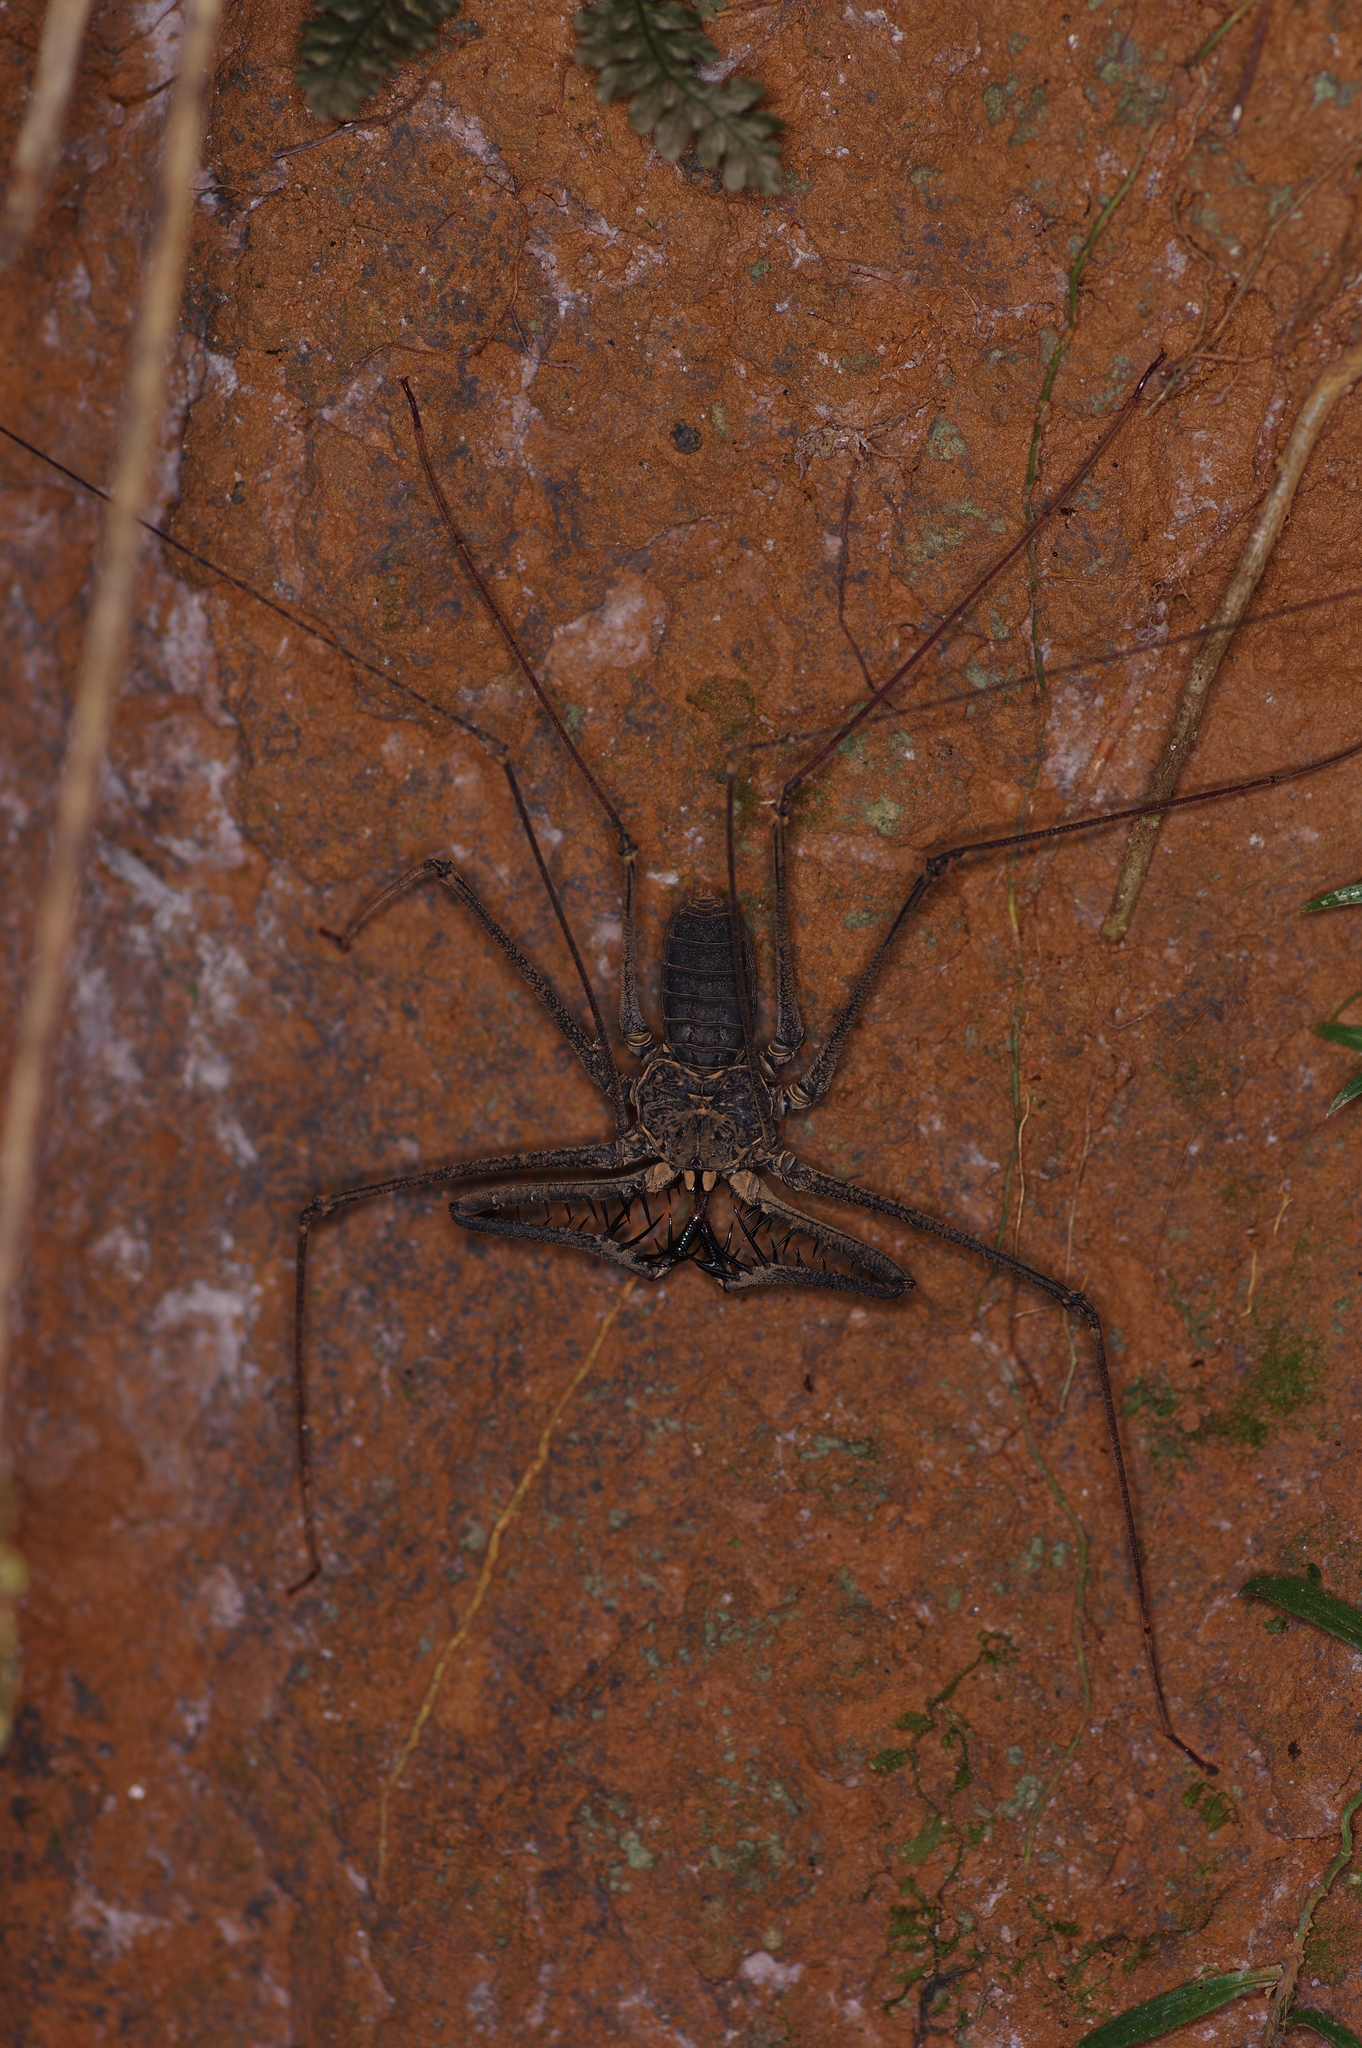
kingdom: Animalia
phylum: Arthropoda
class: Arachnida
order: Amblypygi
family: Phrynidae
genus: Heterophrynus
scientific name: Heterophrynus longicornis
